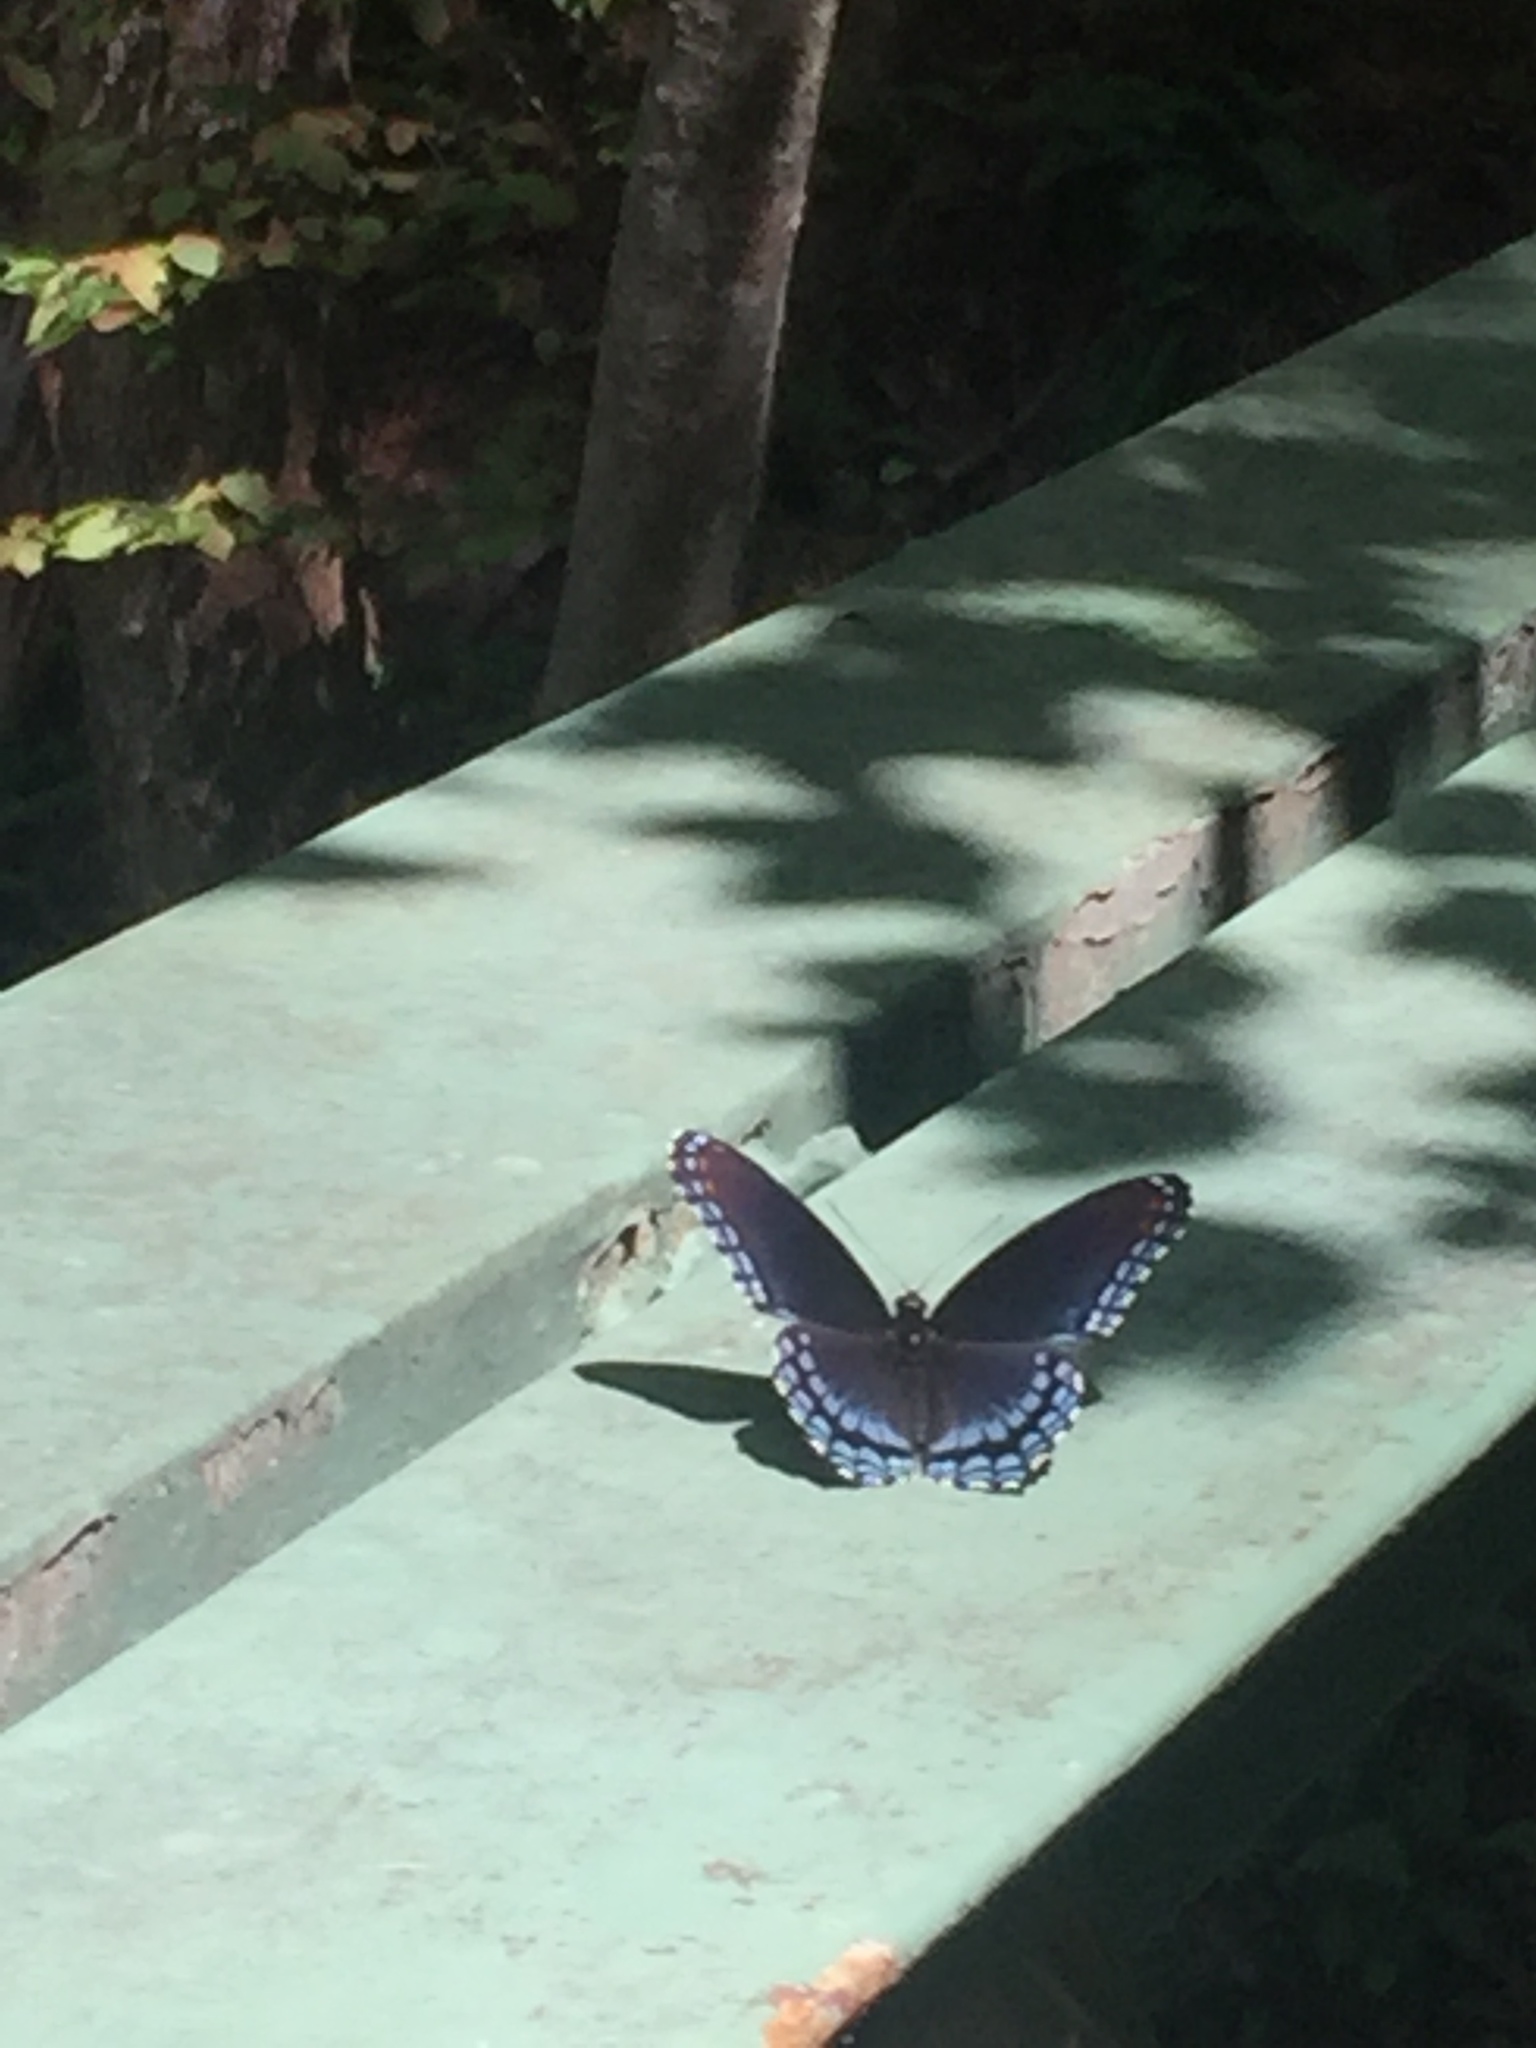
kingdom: Animalia
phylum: Arthropoda
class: Insecta
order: Lepidoptera
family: Nymphalidae
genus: Limenitis
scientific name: Limenitis astyanax
